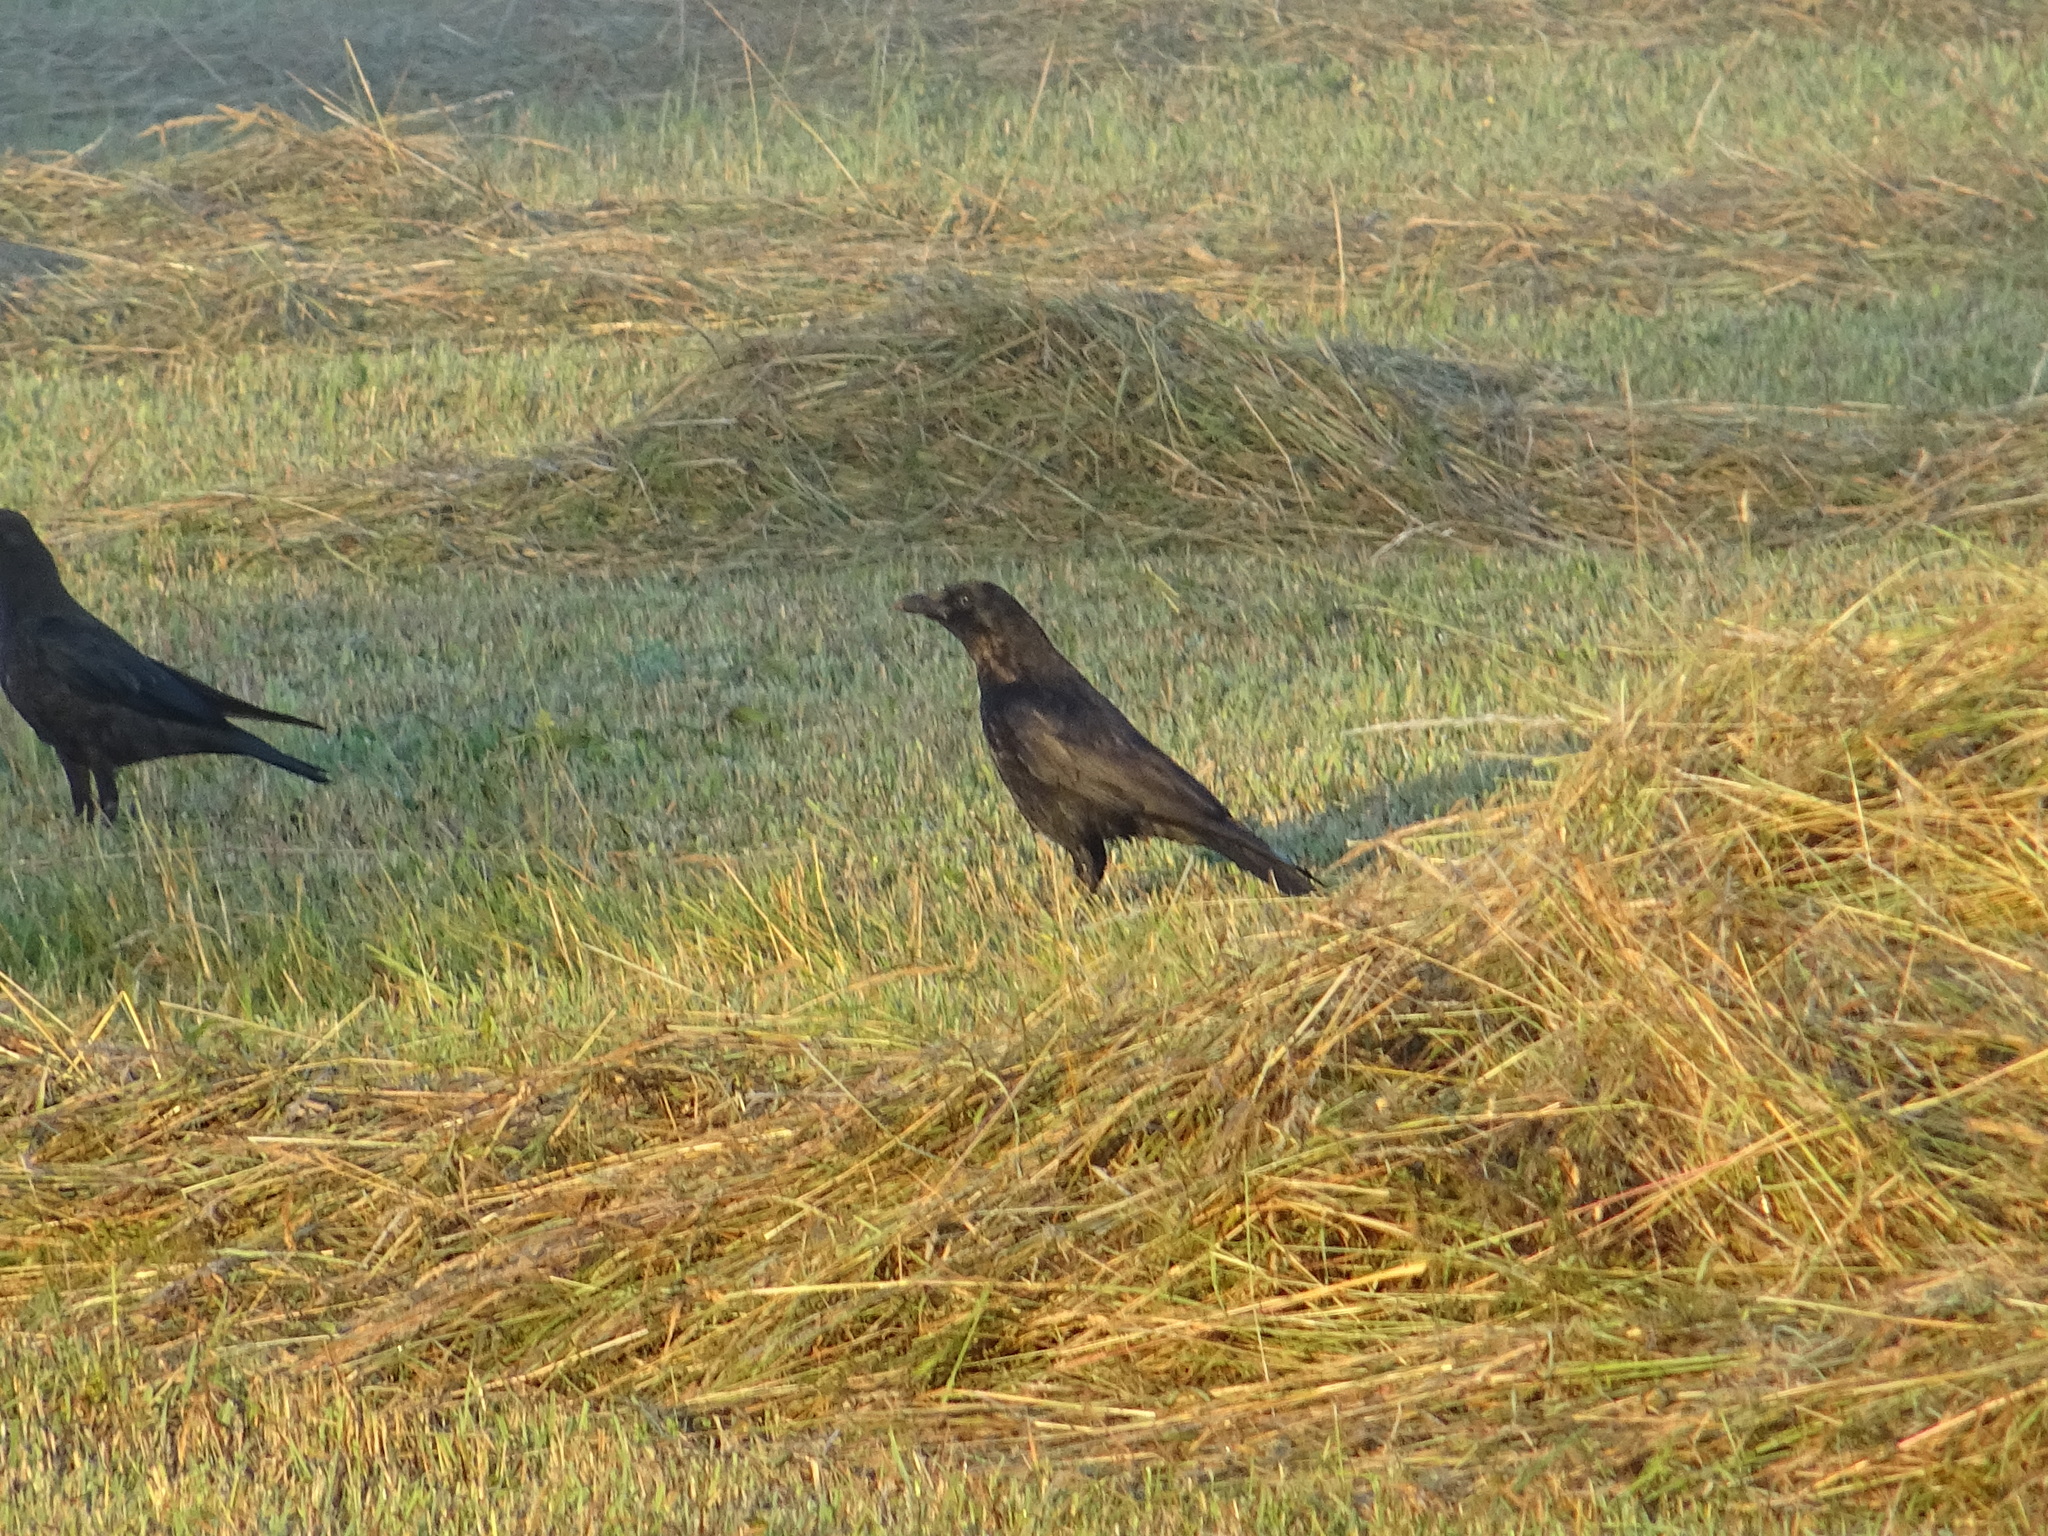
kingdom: Animalia
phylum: Chordata
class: Aves
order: Passeriformes
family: Corvidae
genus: Corvus
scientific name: Corvus corone
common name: Carrion crow
